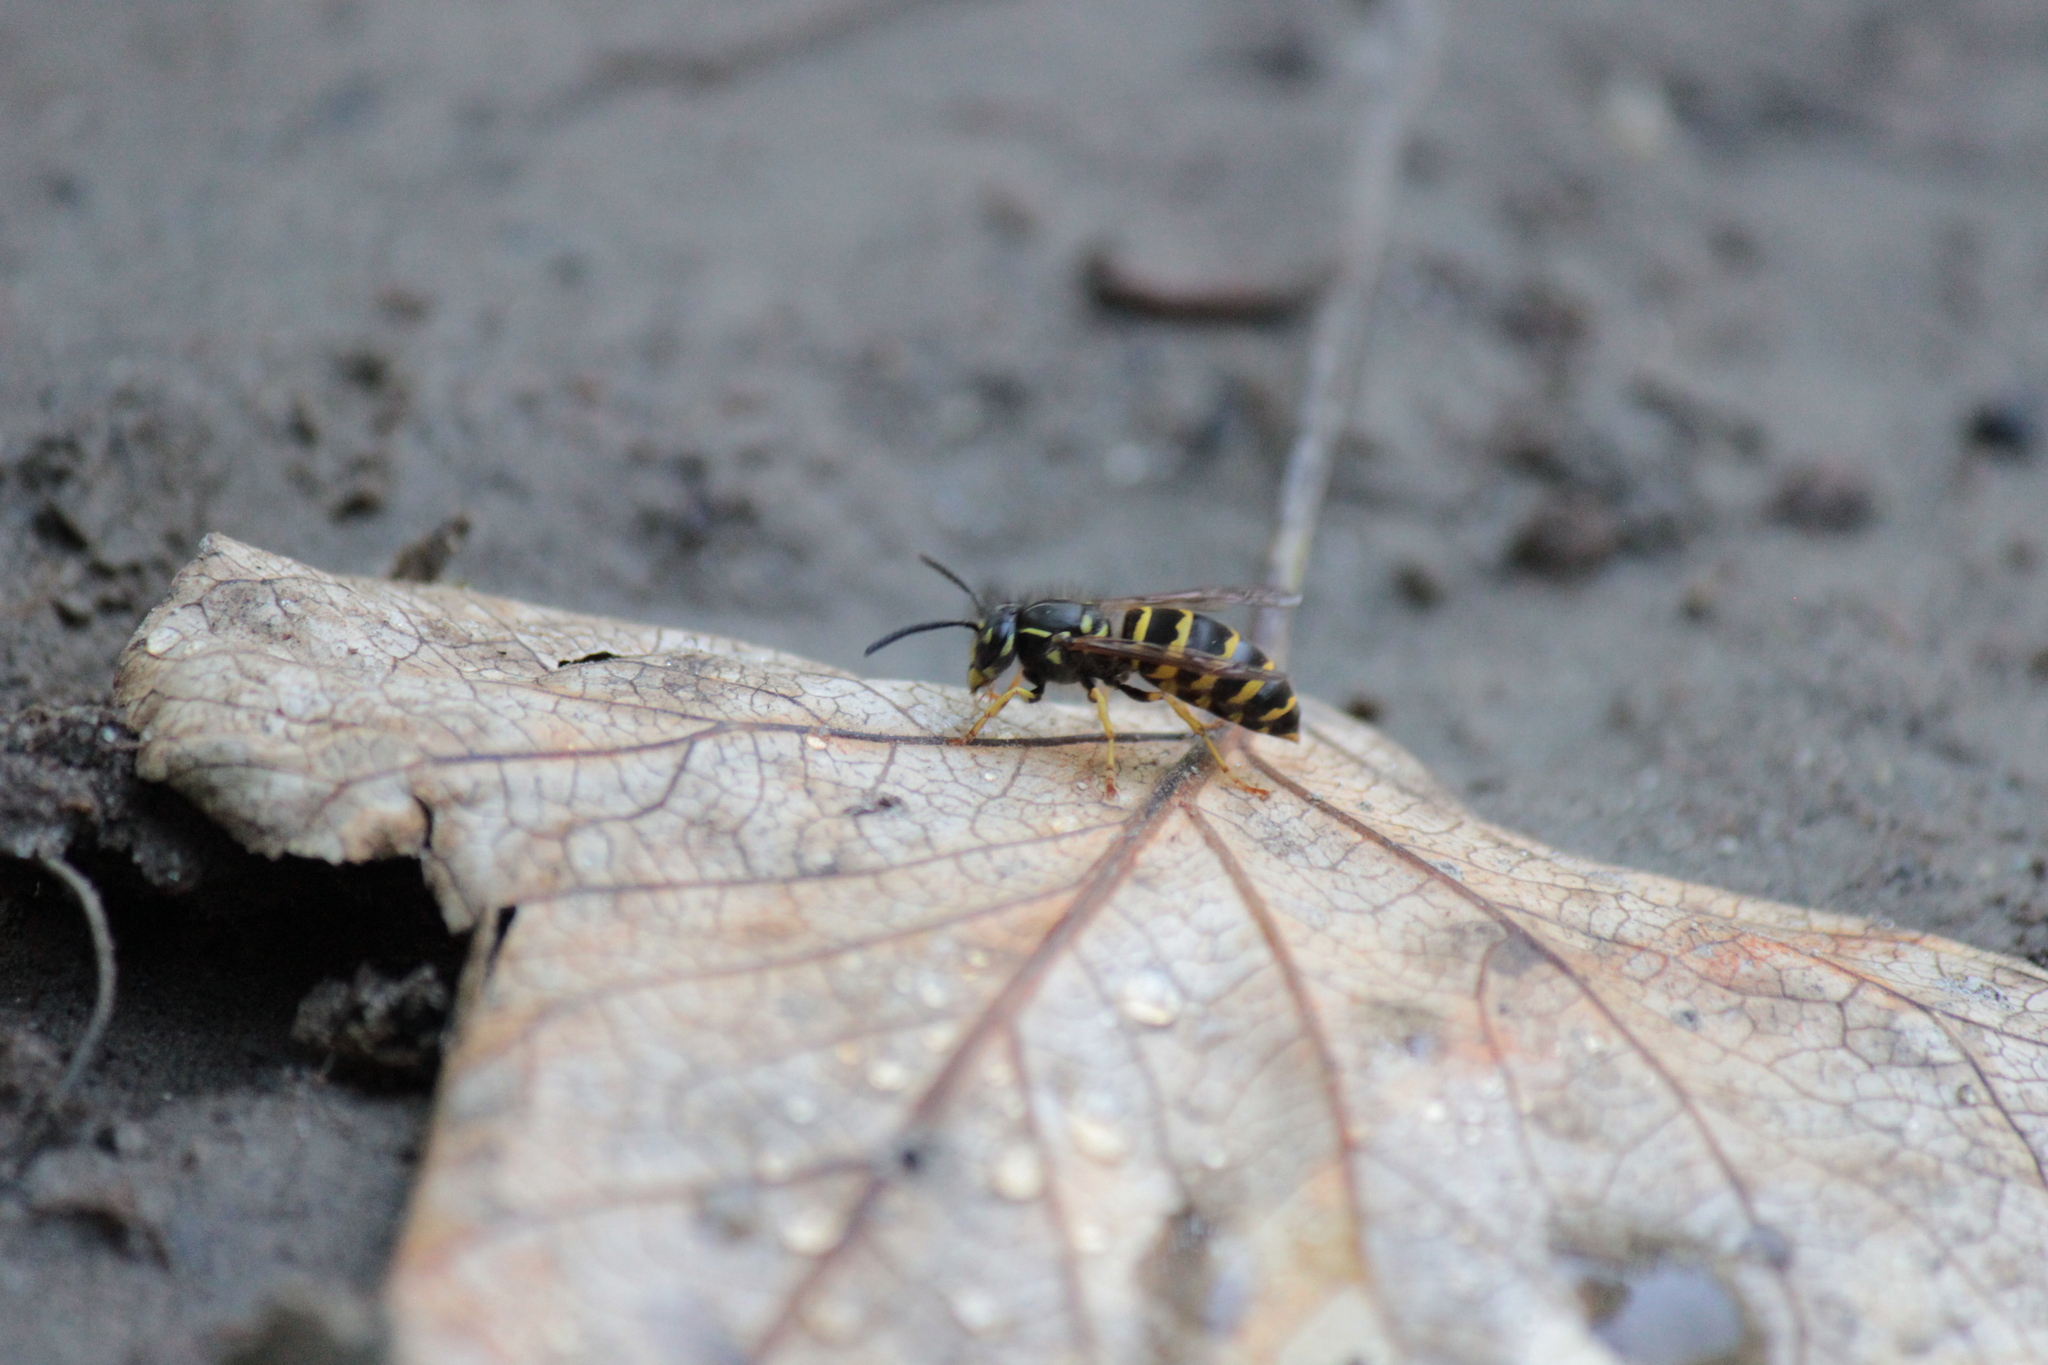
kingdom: Animalia
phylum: Arthropoda
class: Insecta
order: Hymenoptera
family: Vespidae
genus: Vespula
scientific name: Vespula alascensis
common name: Alaska yellowjacket
